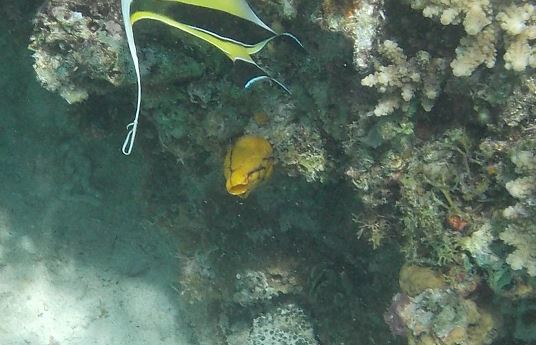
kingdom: Animalia
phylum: Chordata
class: Ascidiacea
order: Stolidobranchia
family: Styelidae
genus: Polycarpa
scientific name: Polycarpa aurata
